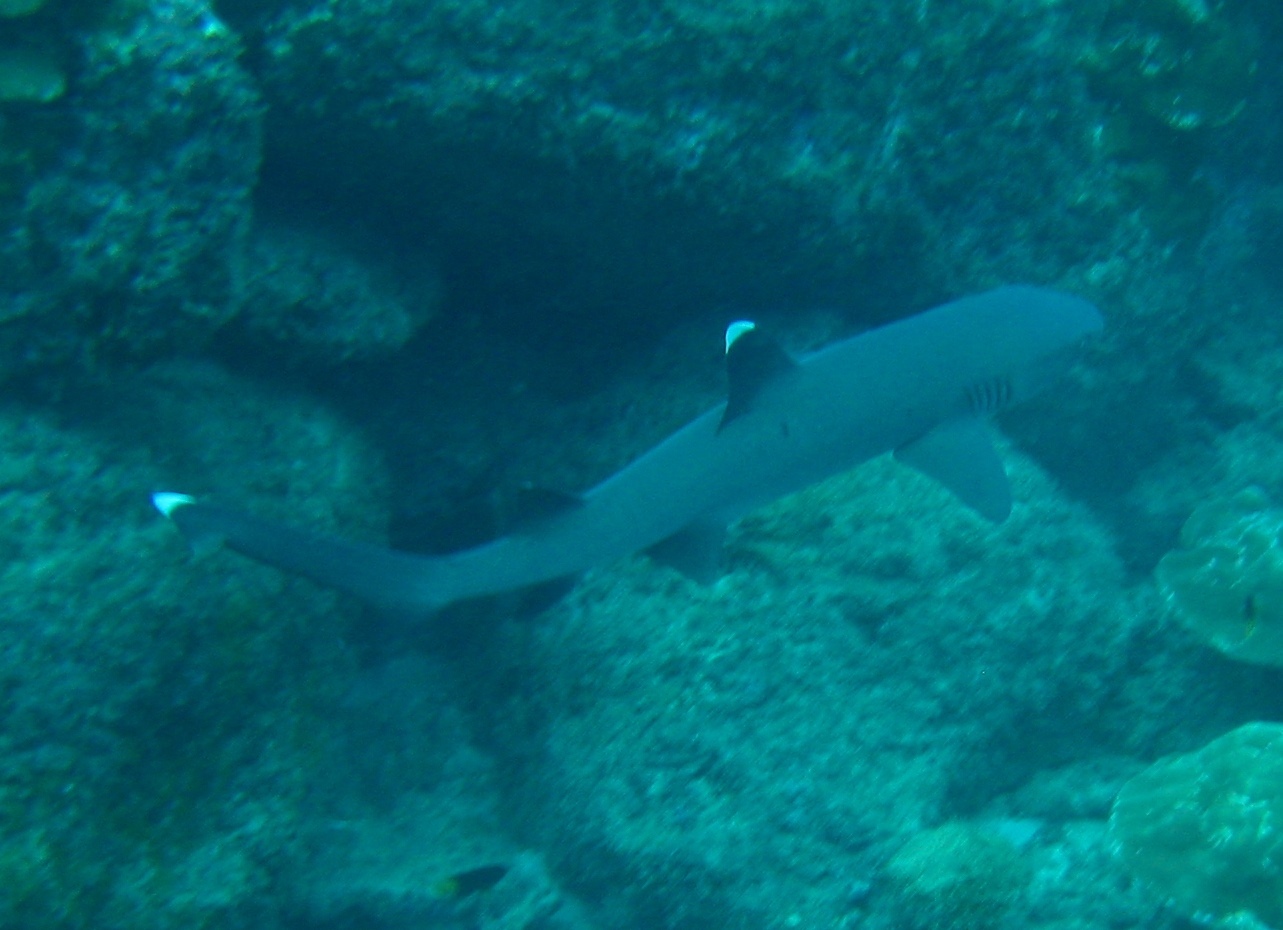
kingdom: Animalia
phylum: Chordata
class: Elasmobranchii
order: Carcharhiniformes
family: Carcharhinidae
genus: Triaenodon
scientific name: Triaenodon obesus
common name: Whitetip reef shark
